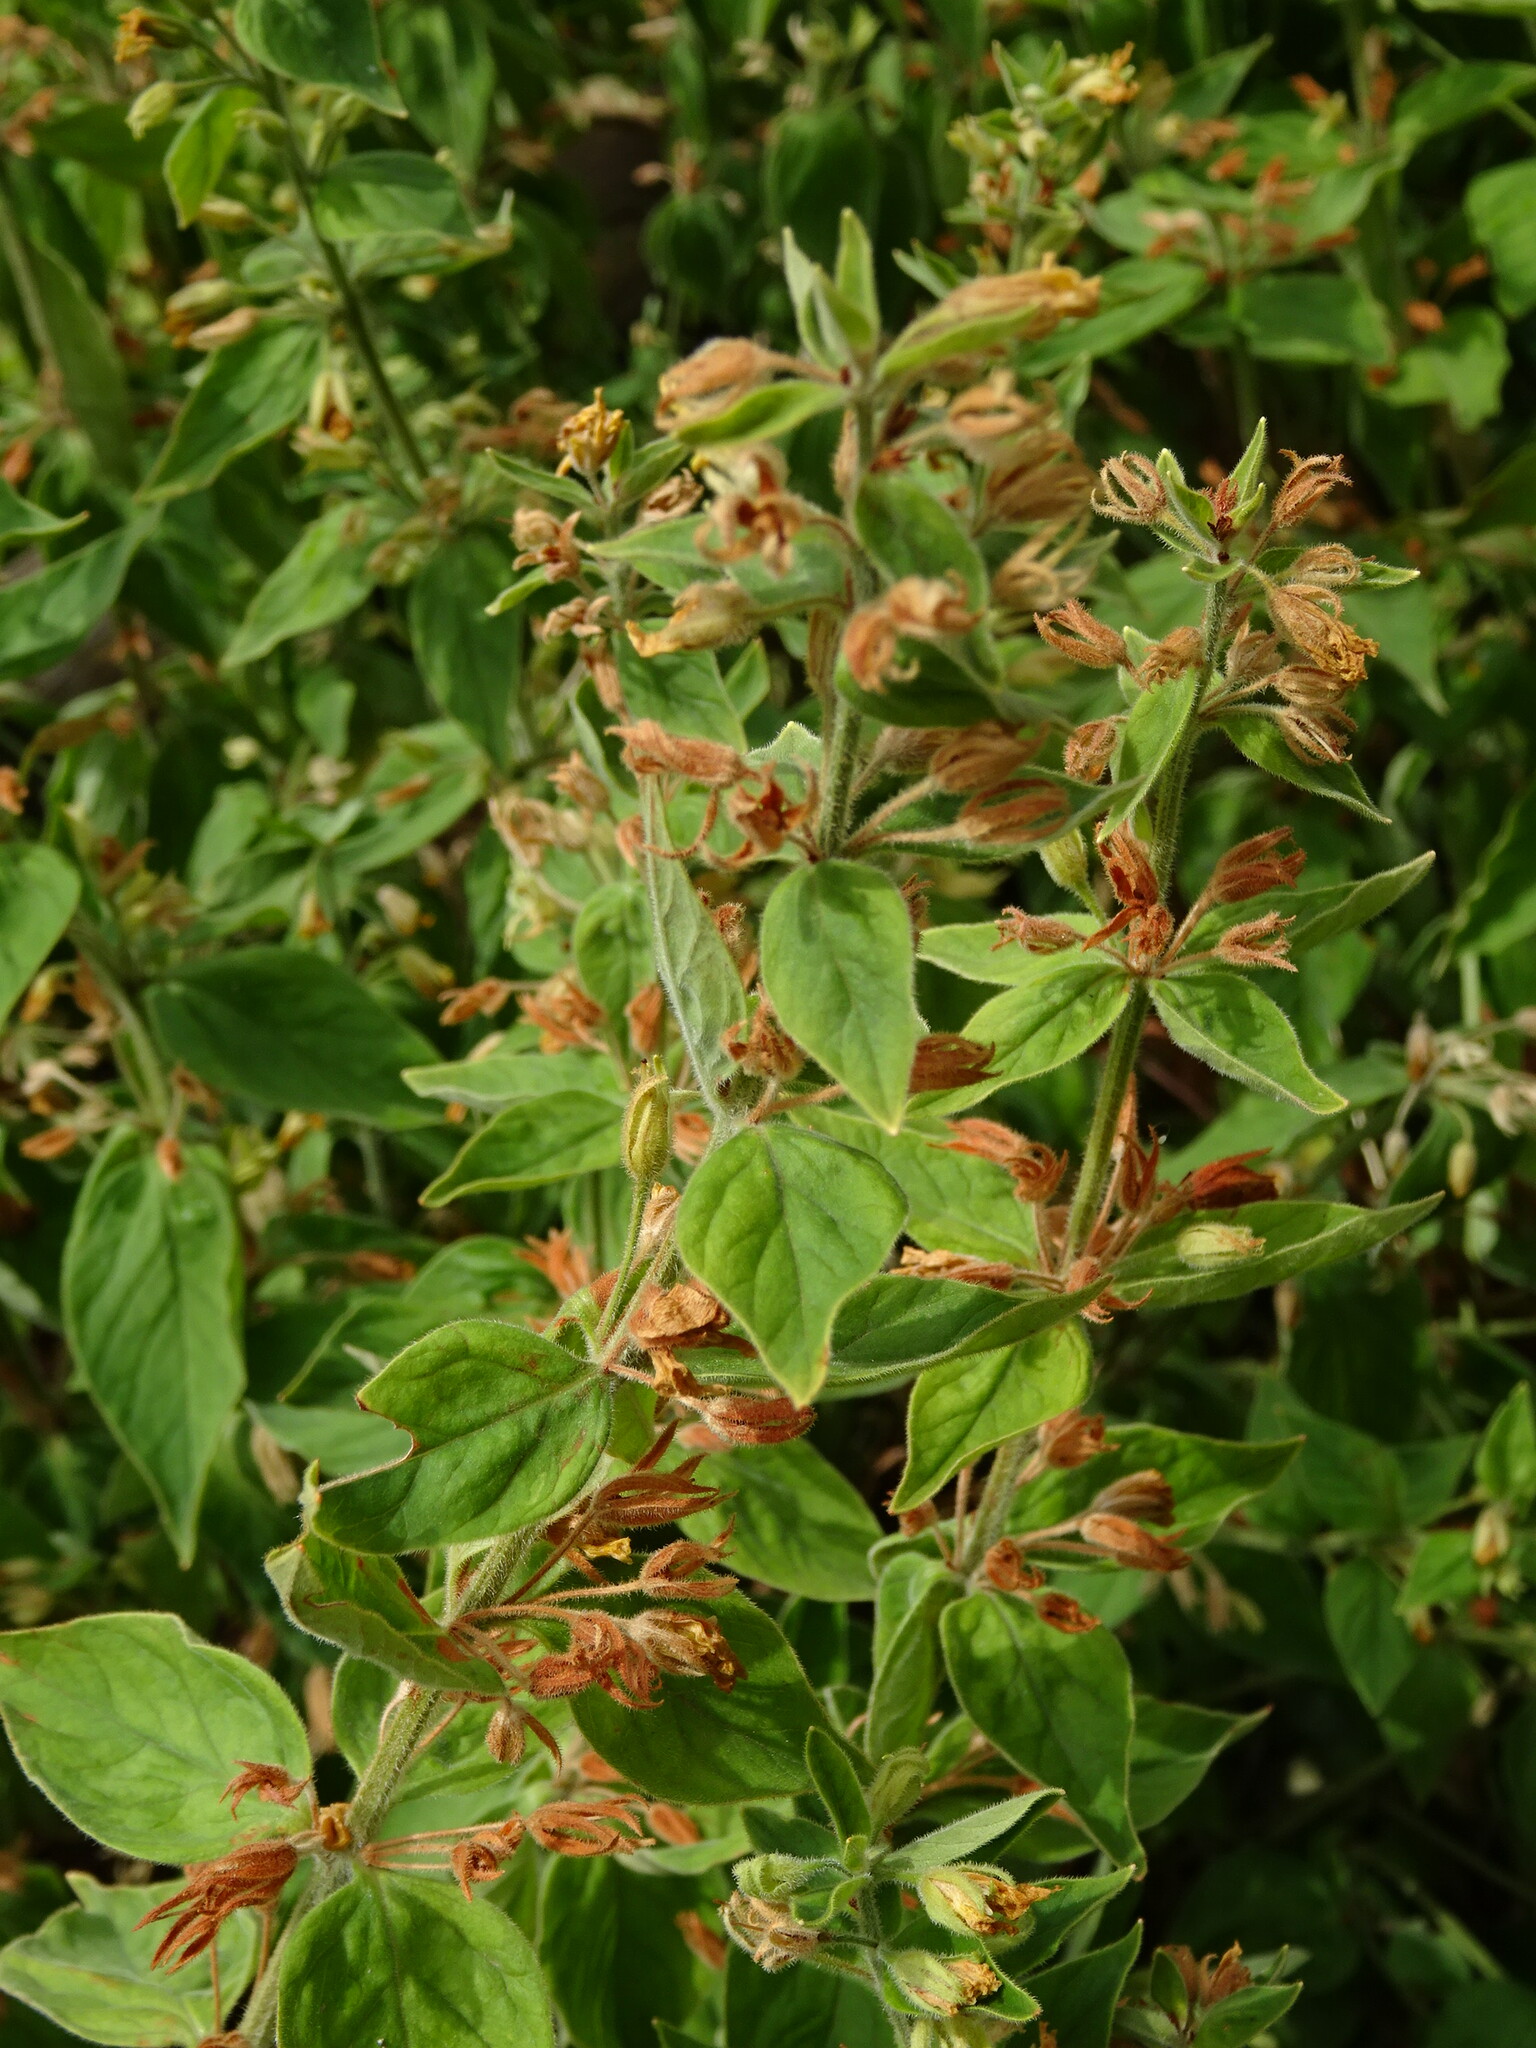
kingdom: Plantae
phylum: Tracheophyta
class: Magnoliopsida
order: Ericales
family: Primulaceae
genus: Lysimachia
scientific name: Lysimachia punctata
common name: Dotted loosestrife
